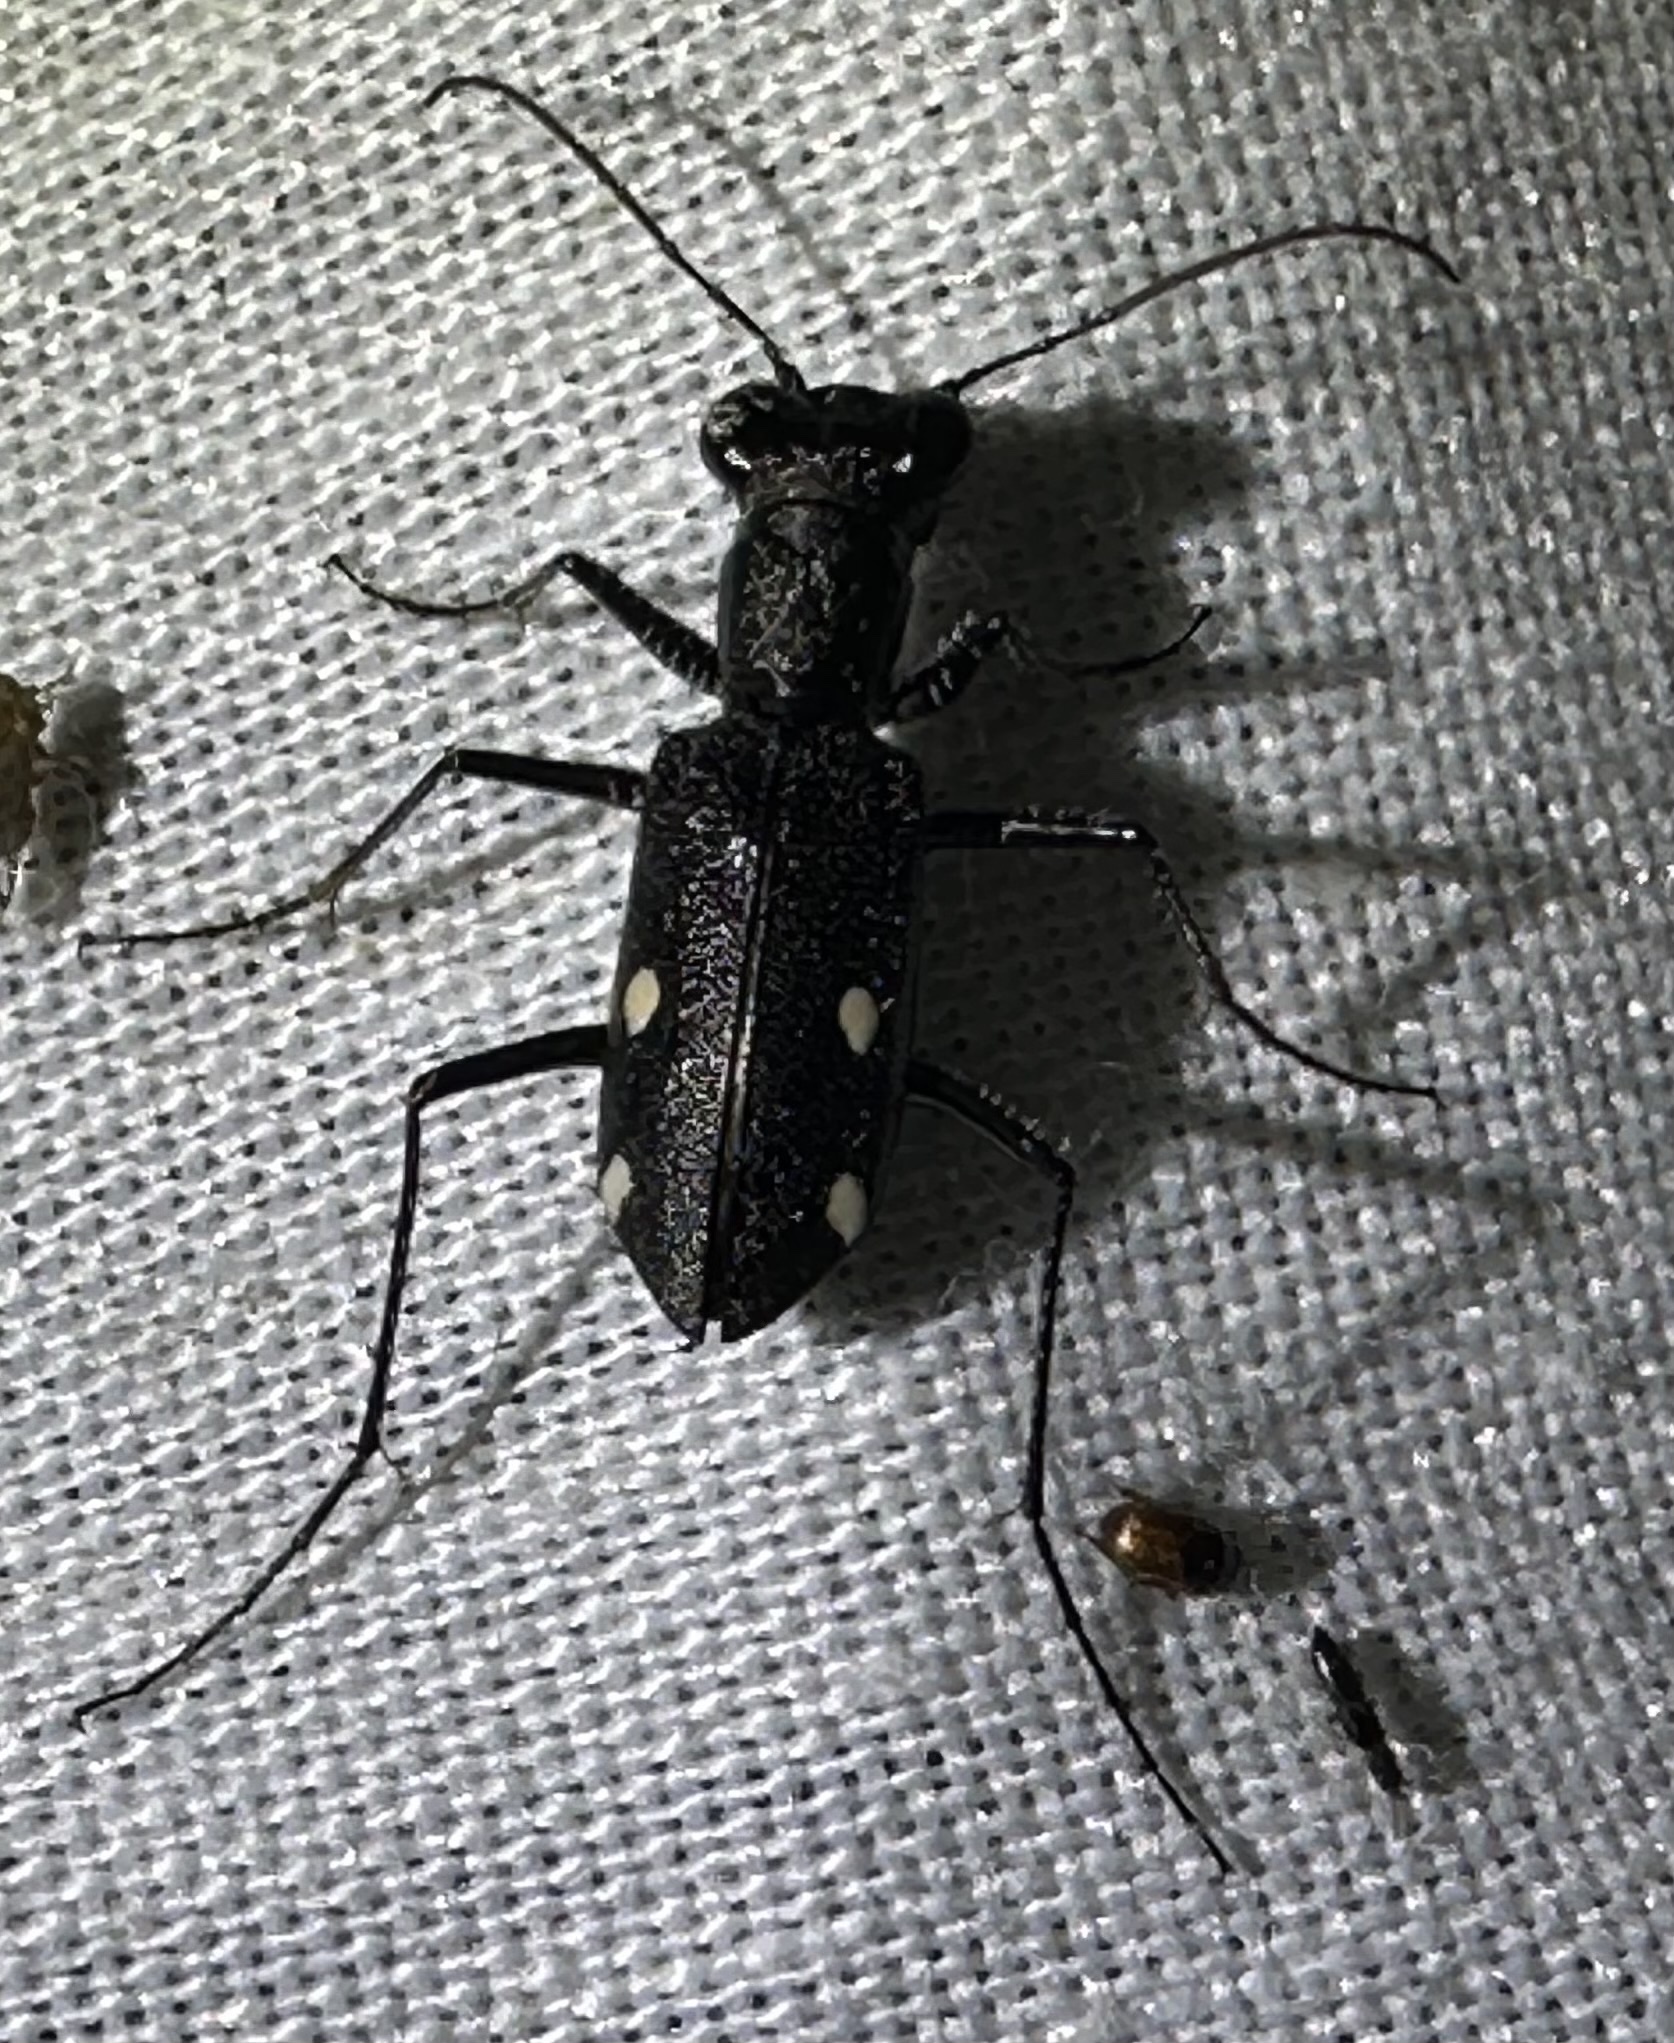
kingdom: Animalia
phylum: Arthropoda
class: Insecta
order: Coleoptera
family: Carabidae
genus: Prothyma
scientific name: Prothyma quadripustulata
